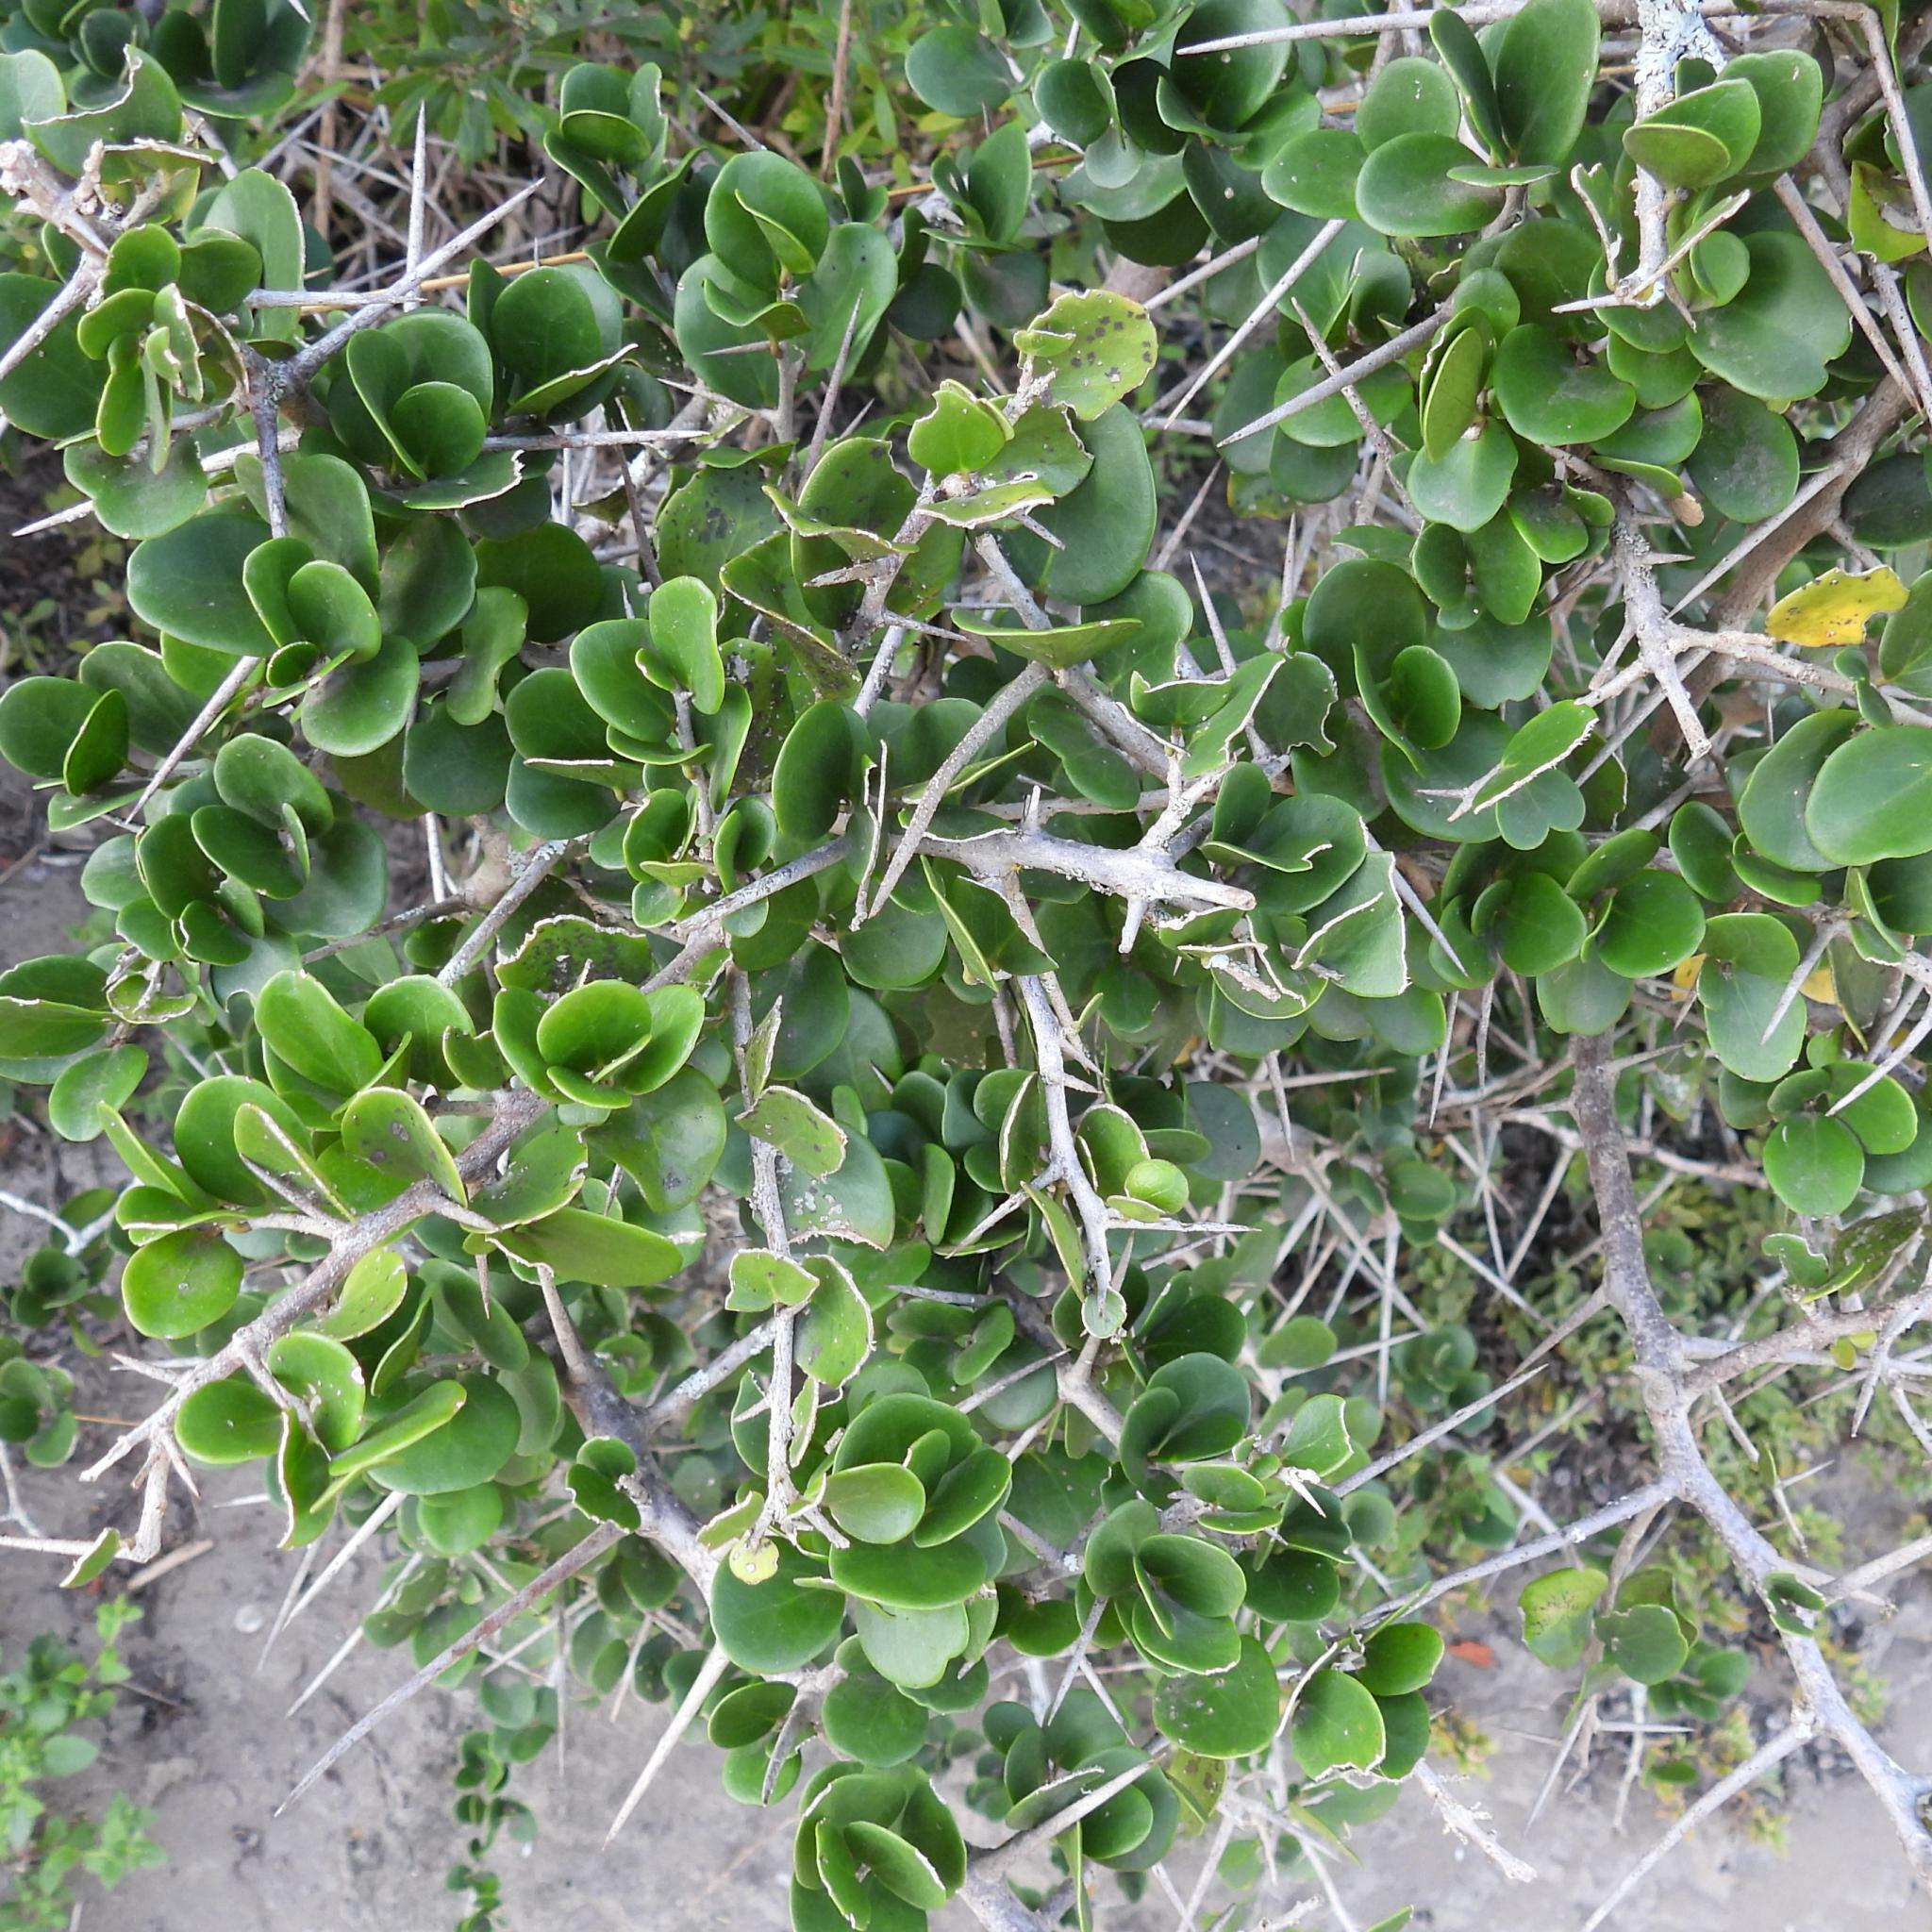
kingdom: Plantae
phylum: Tracheophyta
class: Magnoliopsida
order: Malpighiales
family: Salicaceae
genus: Dovyalis
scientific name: Dovyalis rotundifolia
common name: Dune sourberry
